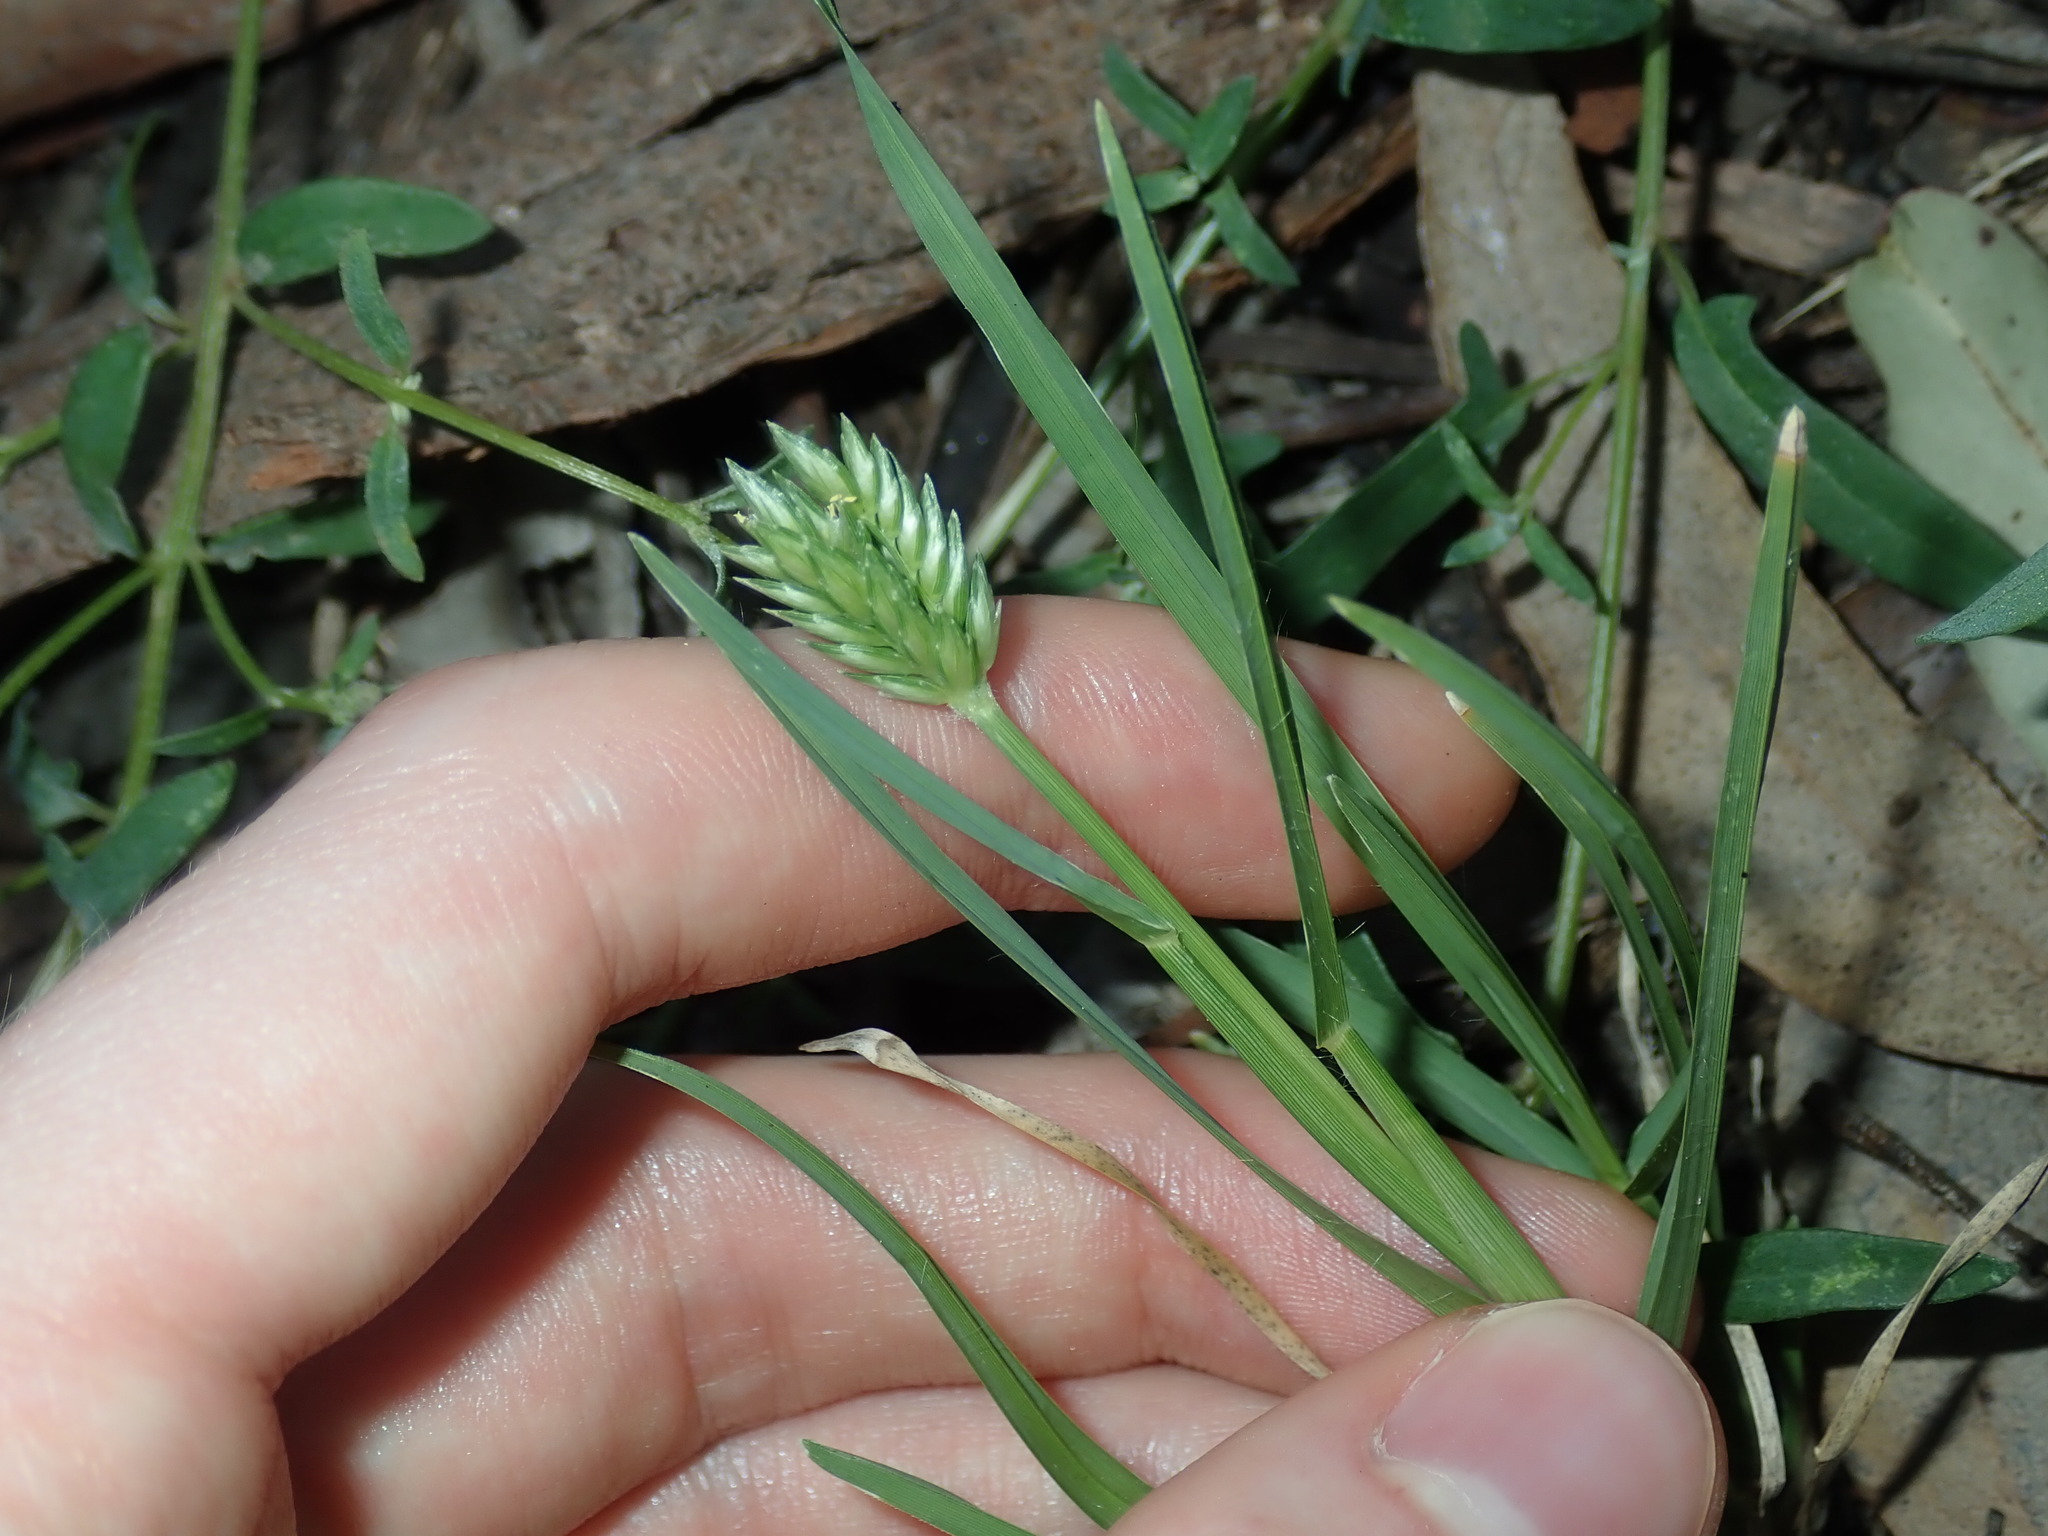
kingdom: Plantae
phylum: Tracheophyta
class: Liliopsida
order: Poales
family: Poaceae
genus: Eleusine
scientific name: Eleusine tristachya
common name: American yard-grass
